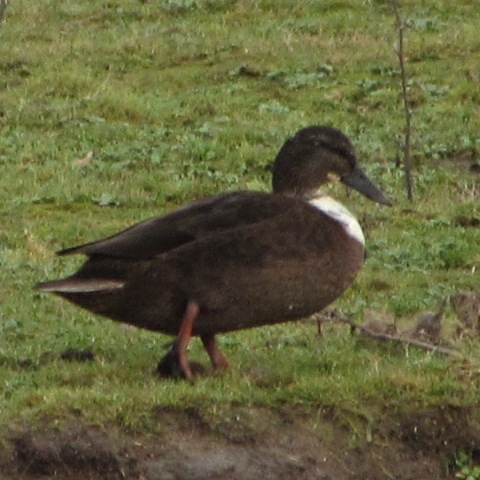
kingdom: Animalia
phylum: Chordata
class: Aves
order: Anseriformes
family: Anatidae
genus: Anas
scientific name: Anas platyrhynchos
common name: Mallard
